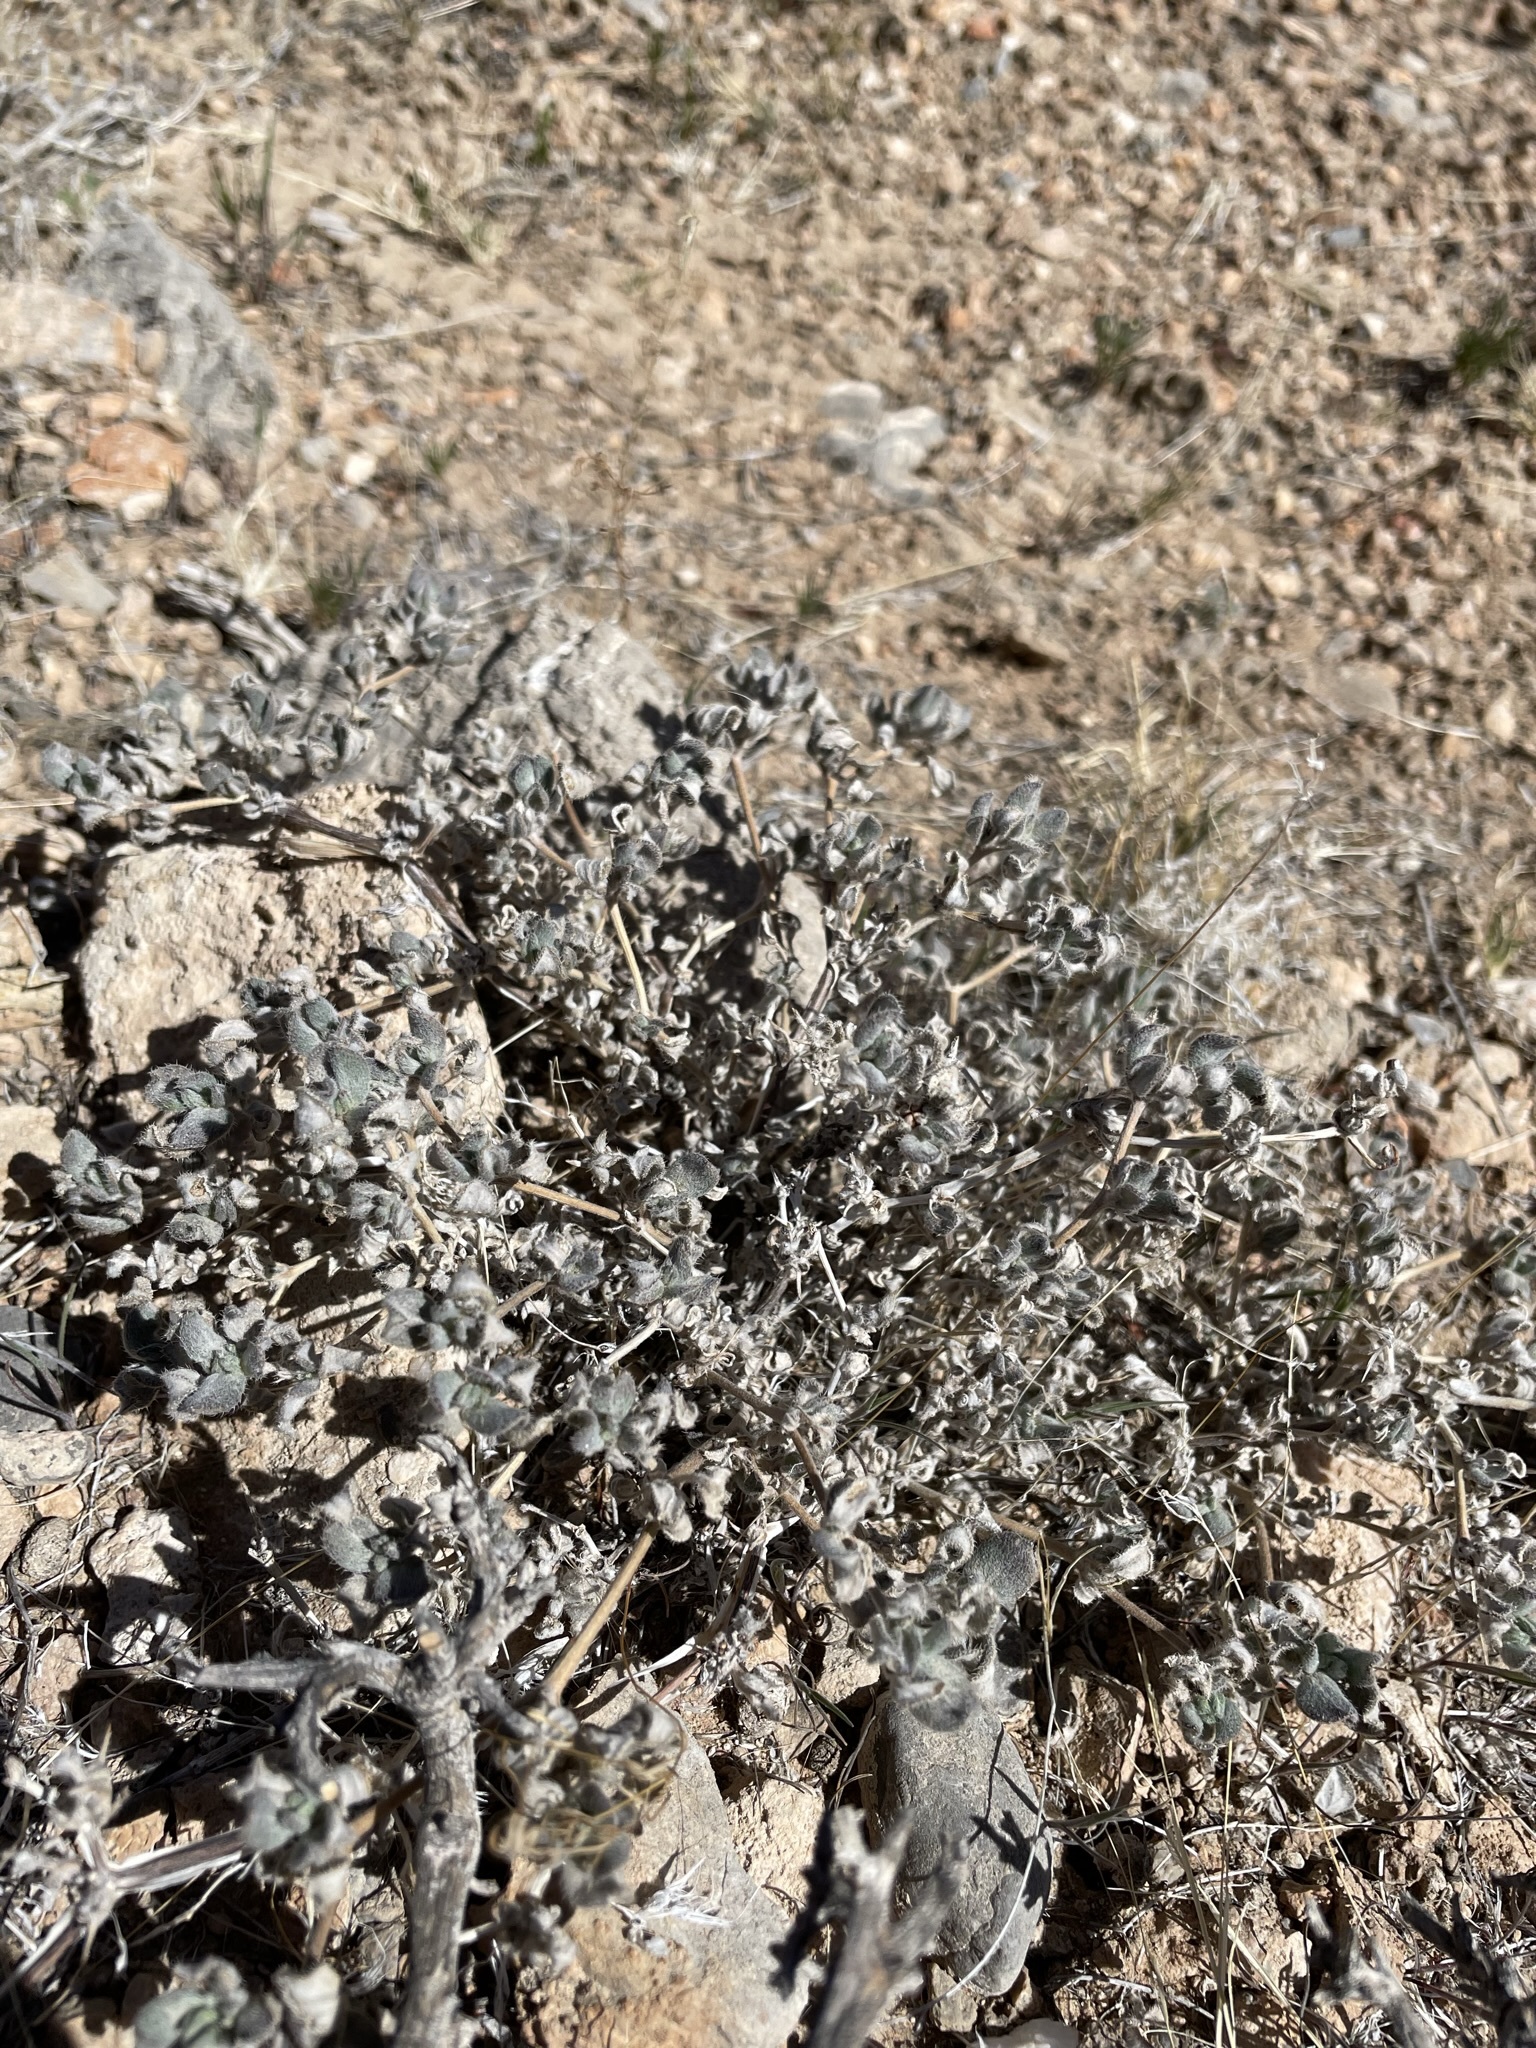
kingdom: Plantae
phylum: Tracheophyta
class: Magnoliopsida
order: Boraginales
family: Ehretiaceae
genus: Tiquilia
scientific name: Tiquilia canescens
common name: Hairy tiquilia
